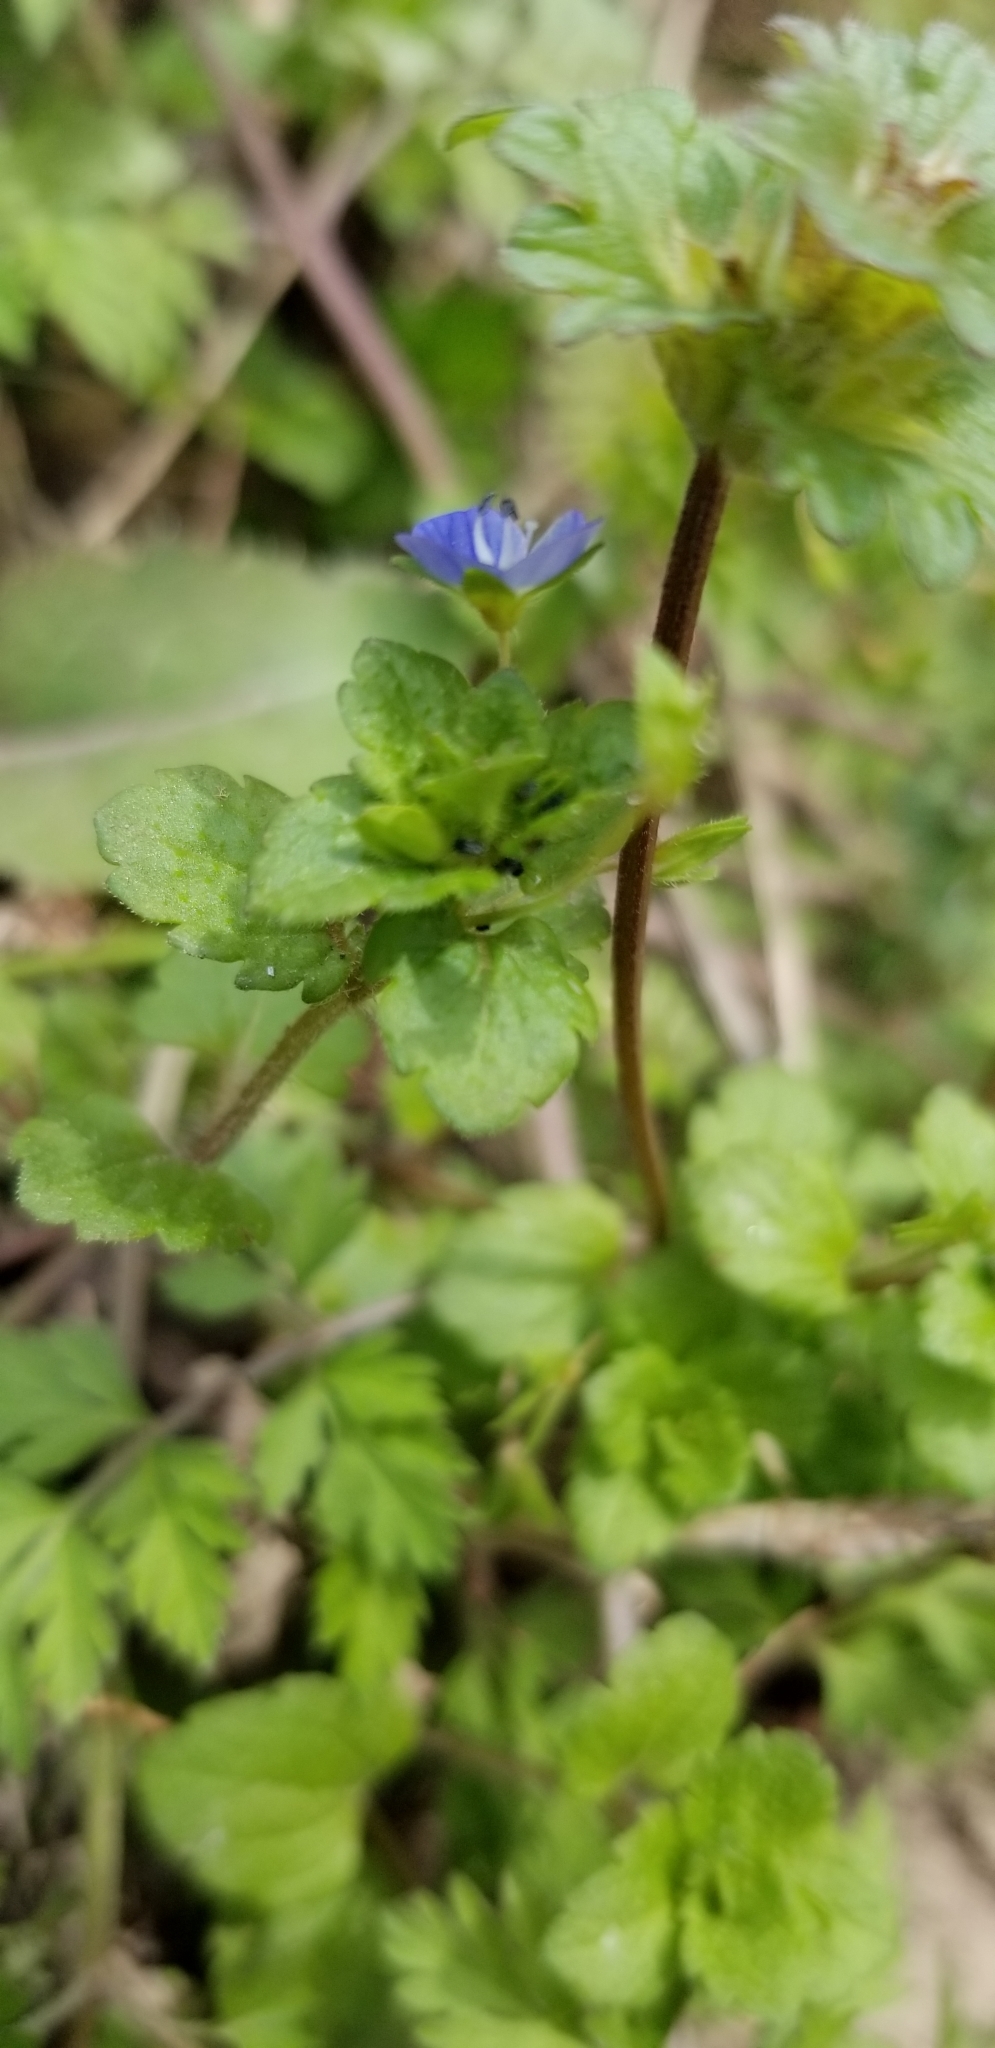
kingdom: Plantae
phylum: Tracheophyta
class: Magnoliopsida
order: Lamiales
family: Plantaginaceae
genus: Veronica
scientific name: Veronica persica
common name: Common field-speedwell
